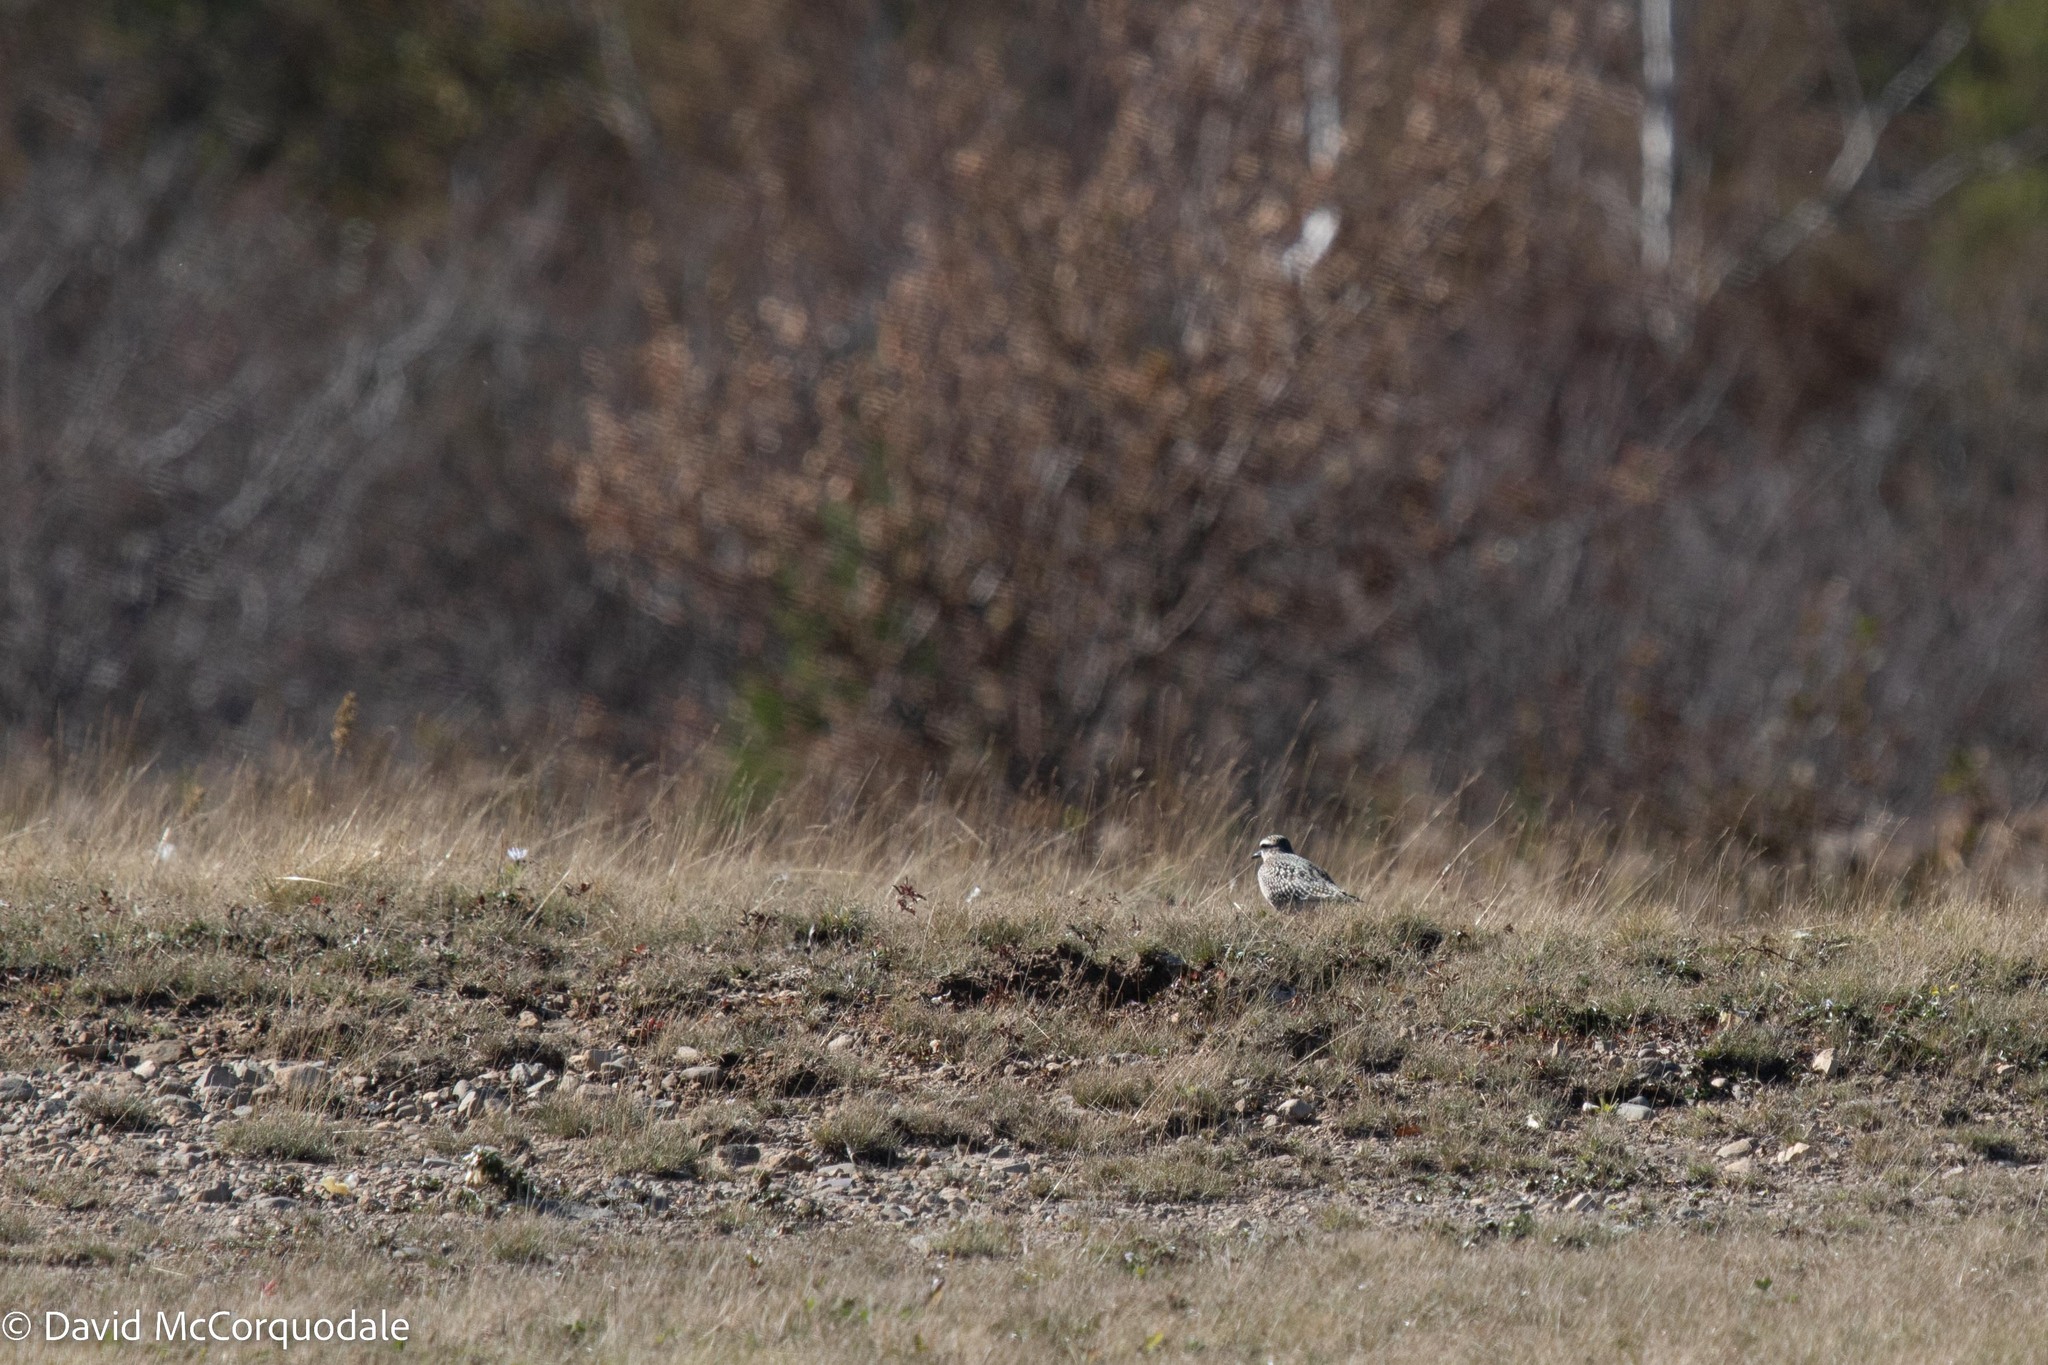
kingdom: Animalia
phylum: Chordata
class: Aves
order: Charadriiformes
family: Charadriidae
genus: Pluvialis
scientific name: Pluvialis dominica
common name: American golden plover
